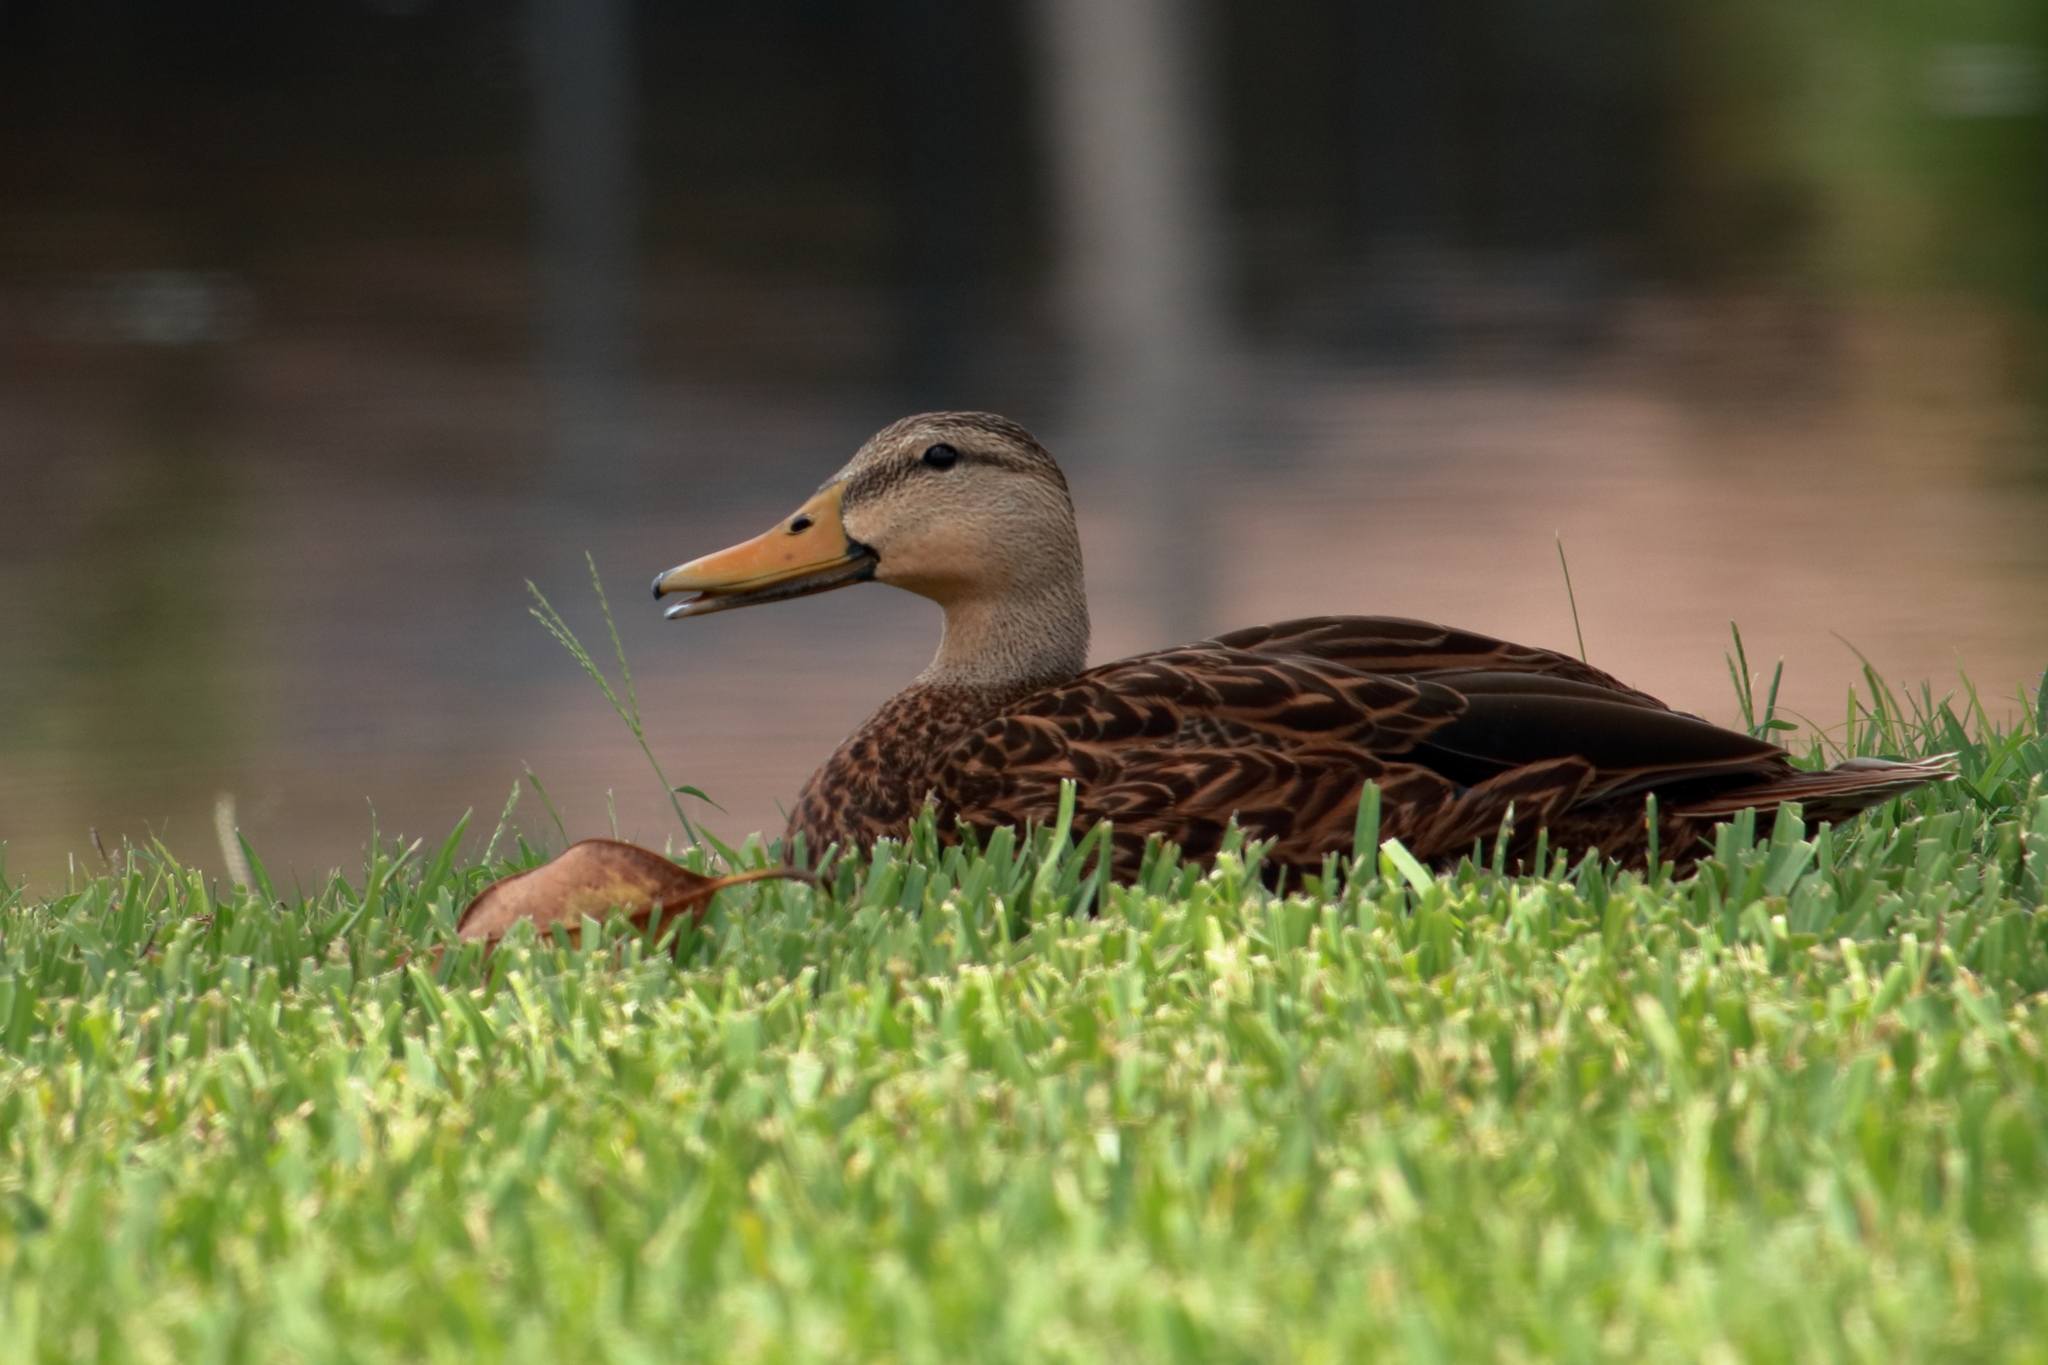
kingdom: Animalia
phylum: Chordata
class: Aves
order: Anseriformes
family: Anatidae
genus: Anas
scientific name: Anas fulvigula
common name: Mottled duck
